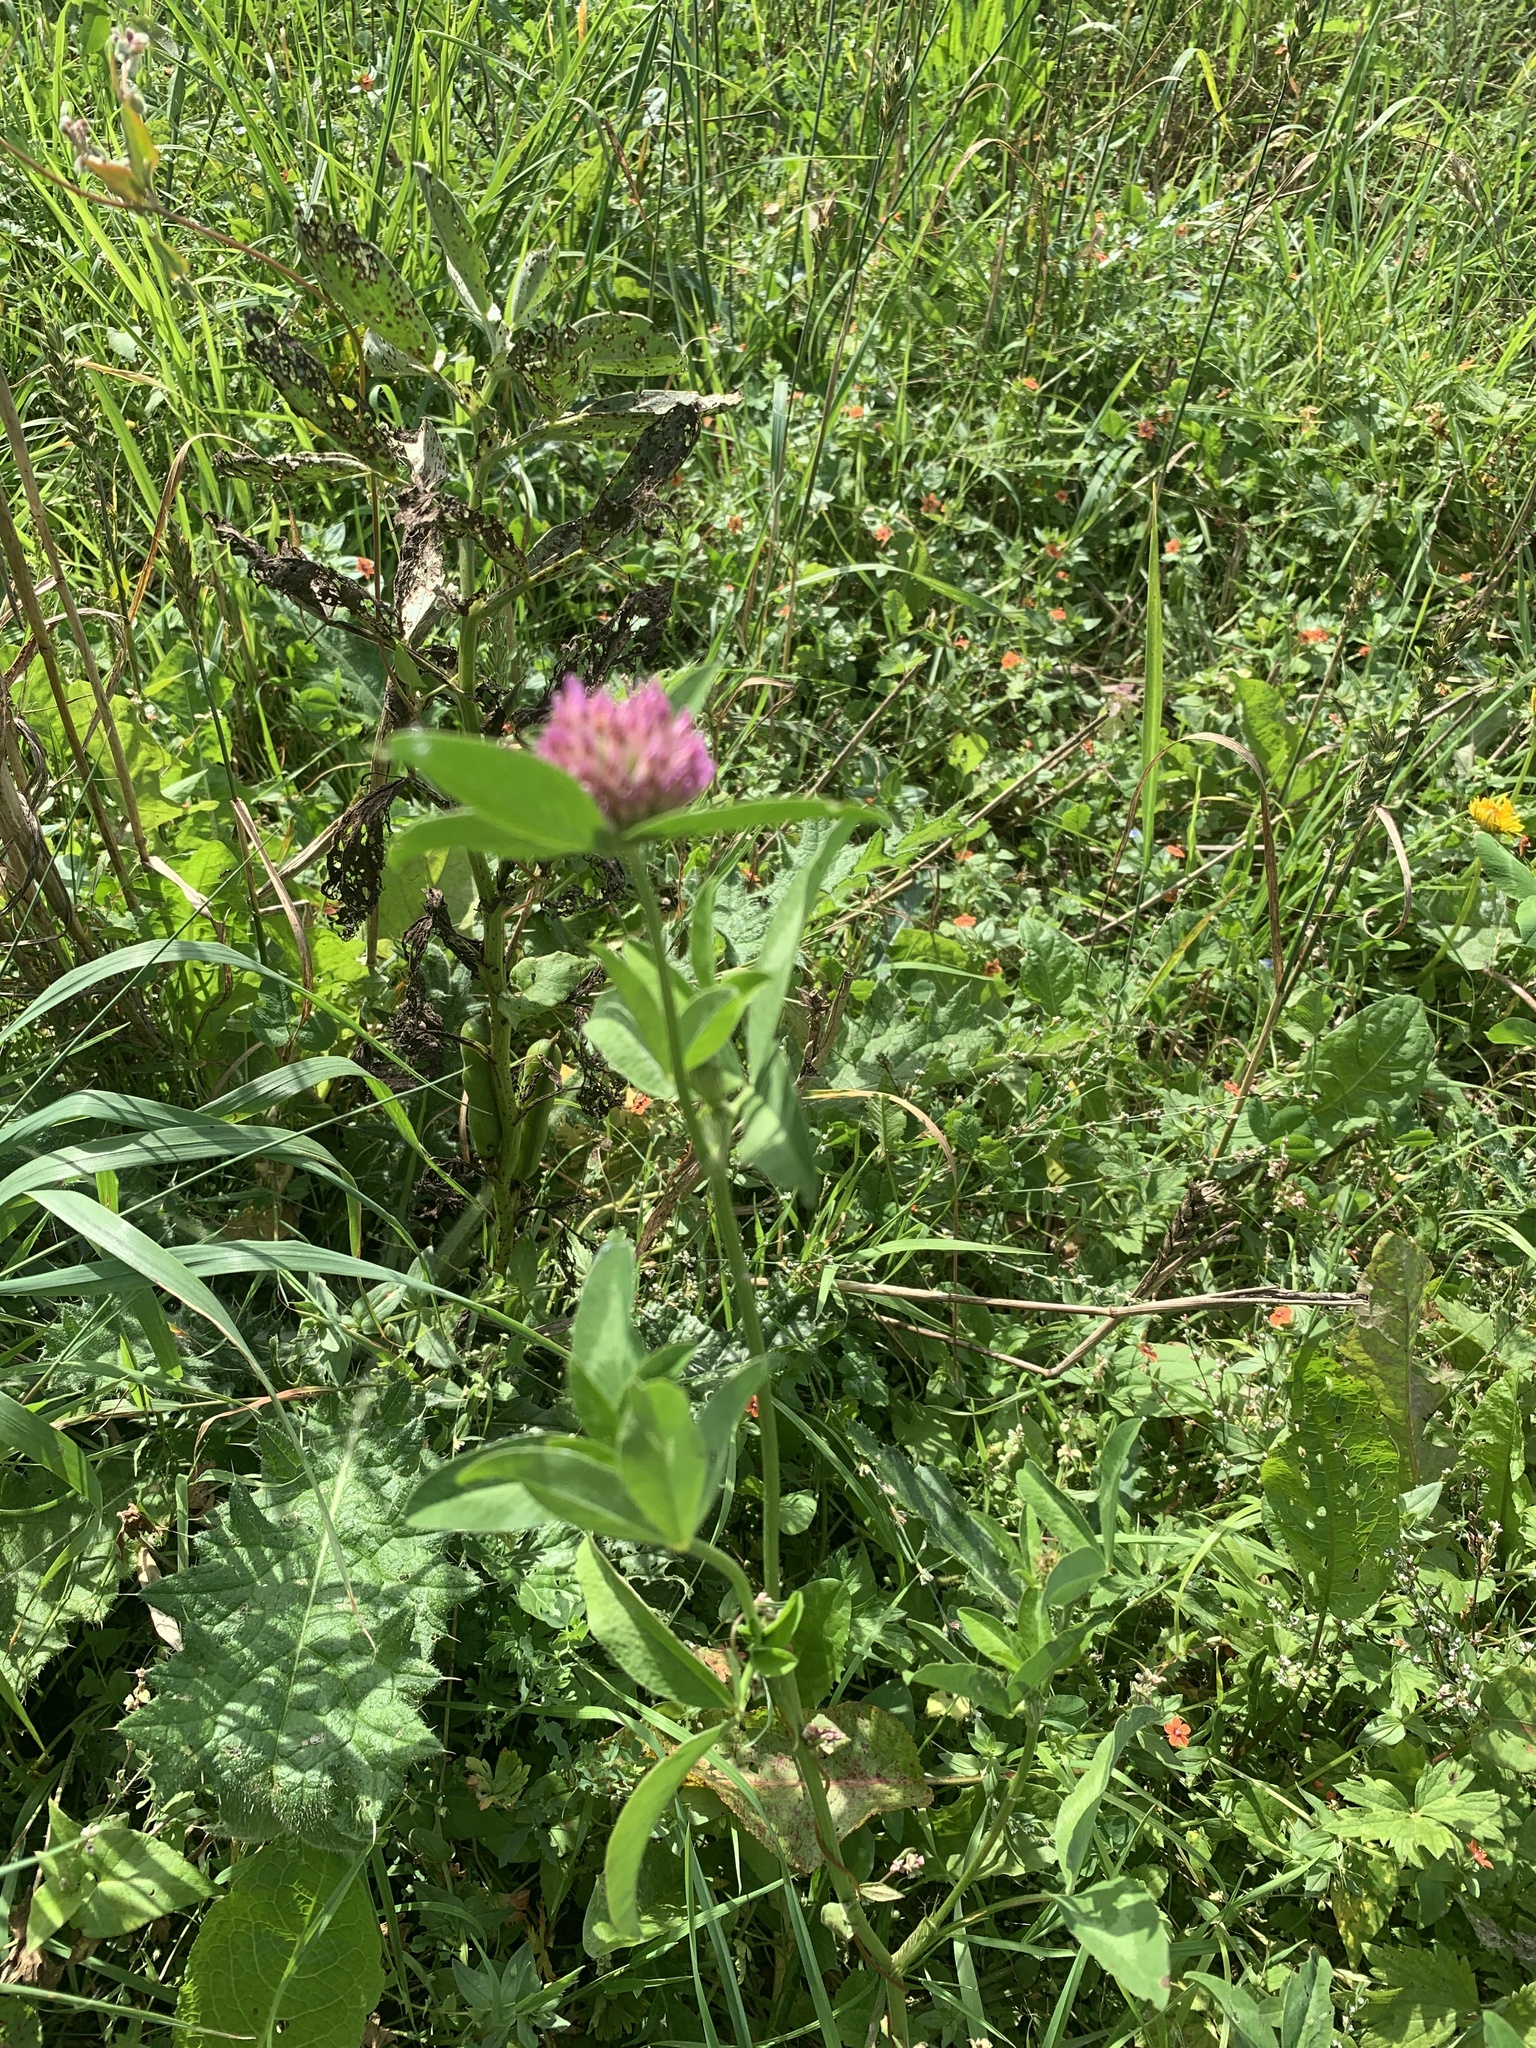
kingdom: Plantae
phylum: Tracheophyta
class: Magnoliopsida
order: Fabales
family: Fabaceae
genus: Trifolium
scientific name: Trifolium pratense
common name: Red clover
